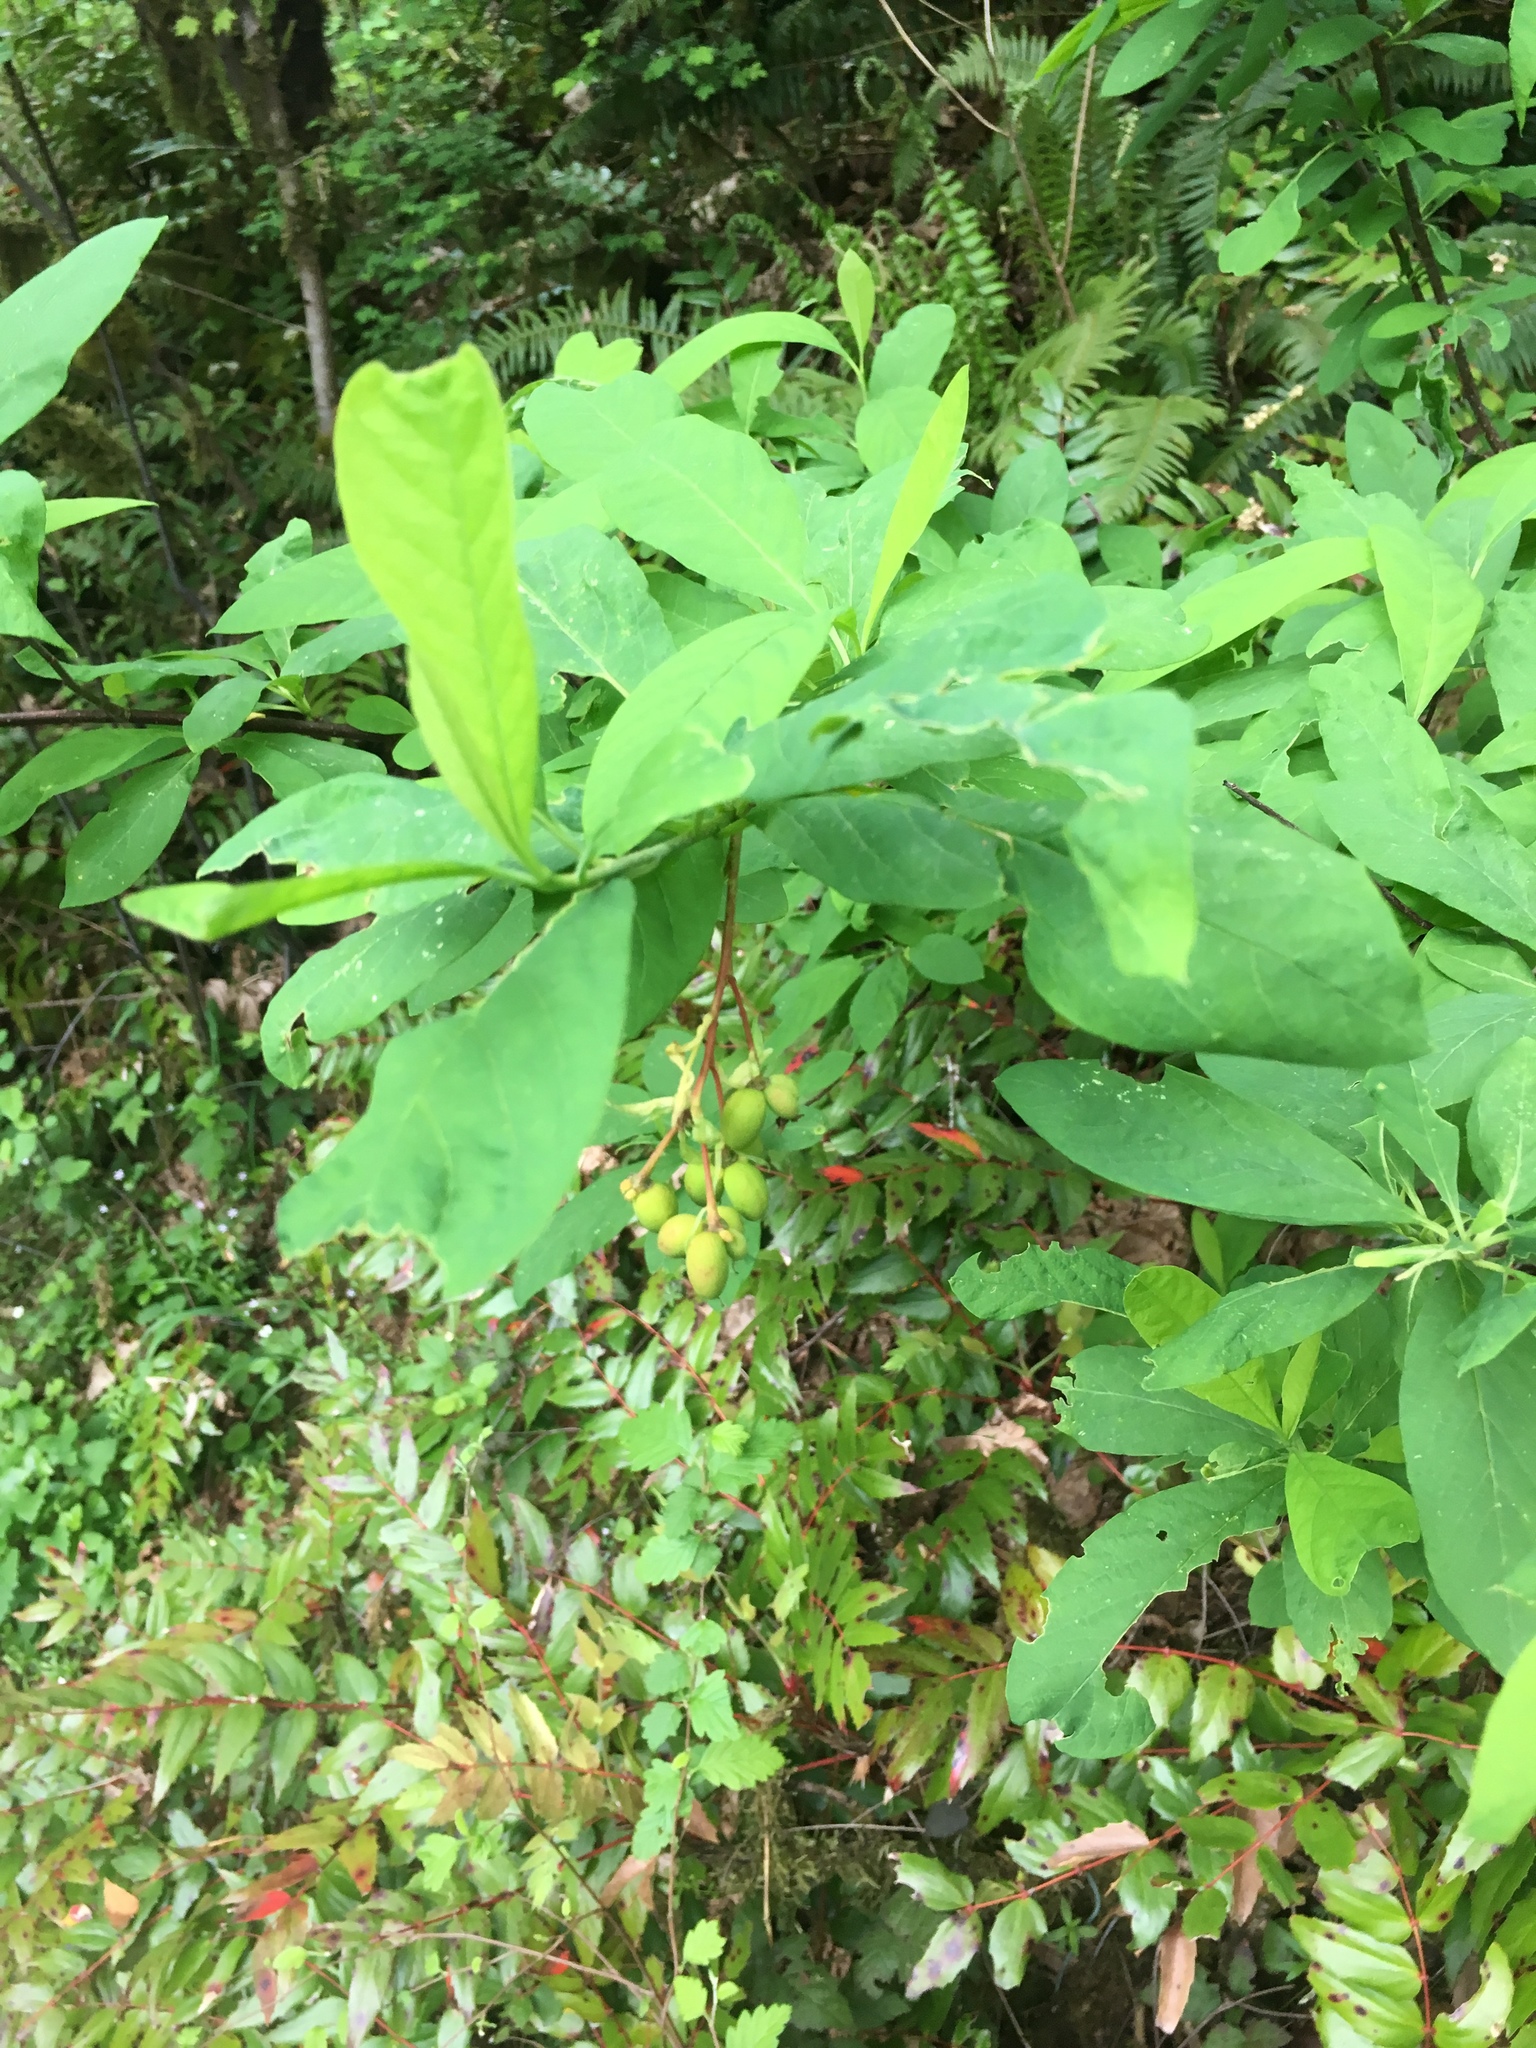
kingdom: Plantae
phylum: Tracheophyta
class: Magnoliopsida
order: Rosales
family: Rosaceae
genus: Oemleria
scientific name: Oemleria cerasiformis
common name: Osoberry
